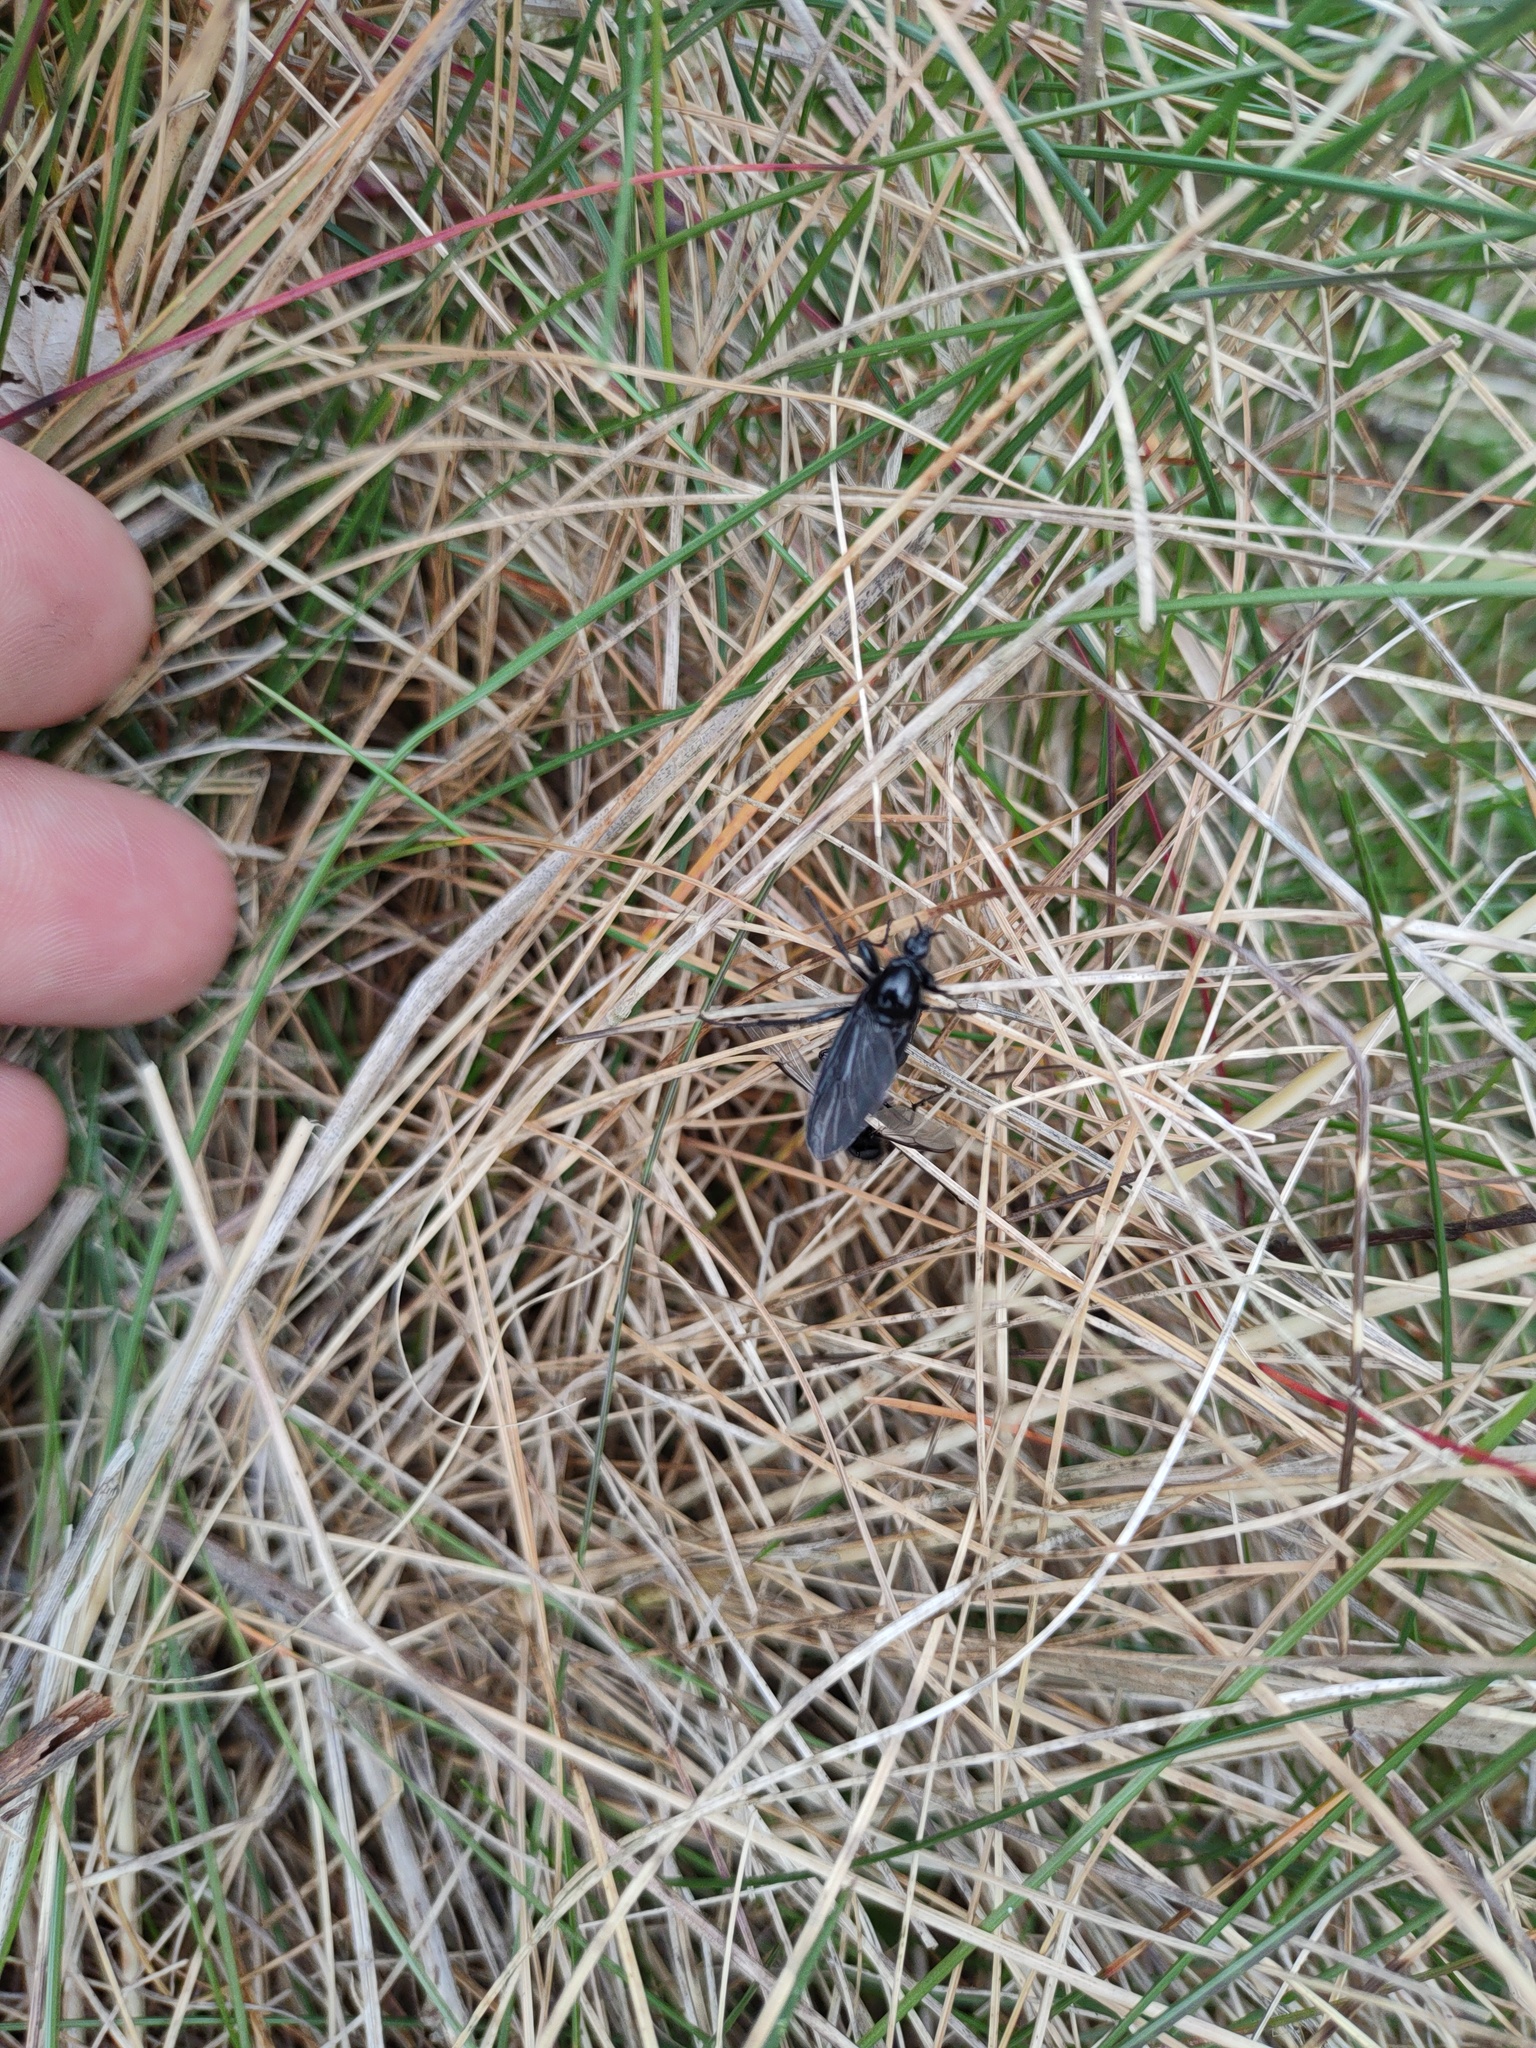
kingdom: Animalia
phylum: Arthropoda
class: Insecta
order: Diptera
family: Bibionidae
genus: Bibio
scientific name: Bibio marci
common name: St marks fly
